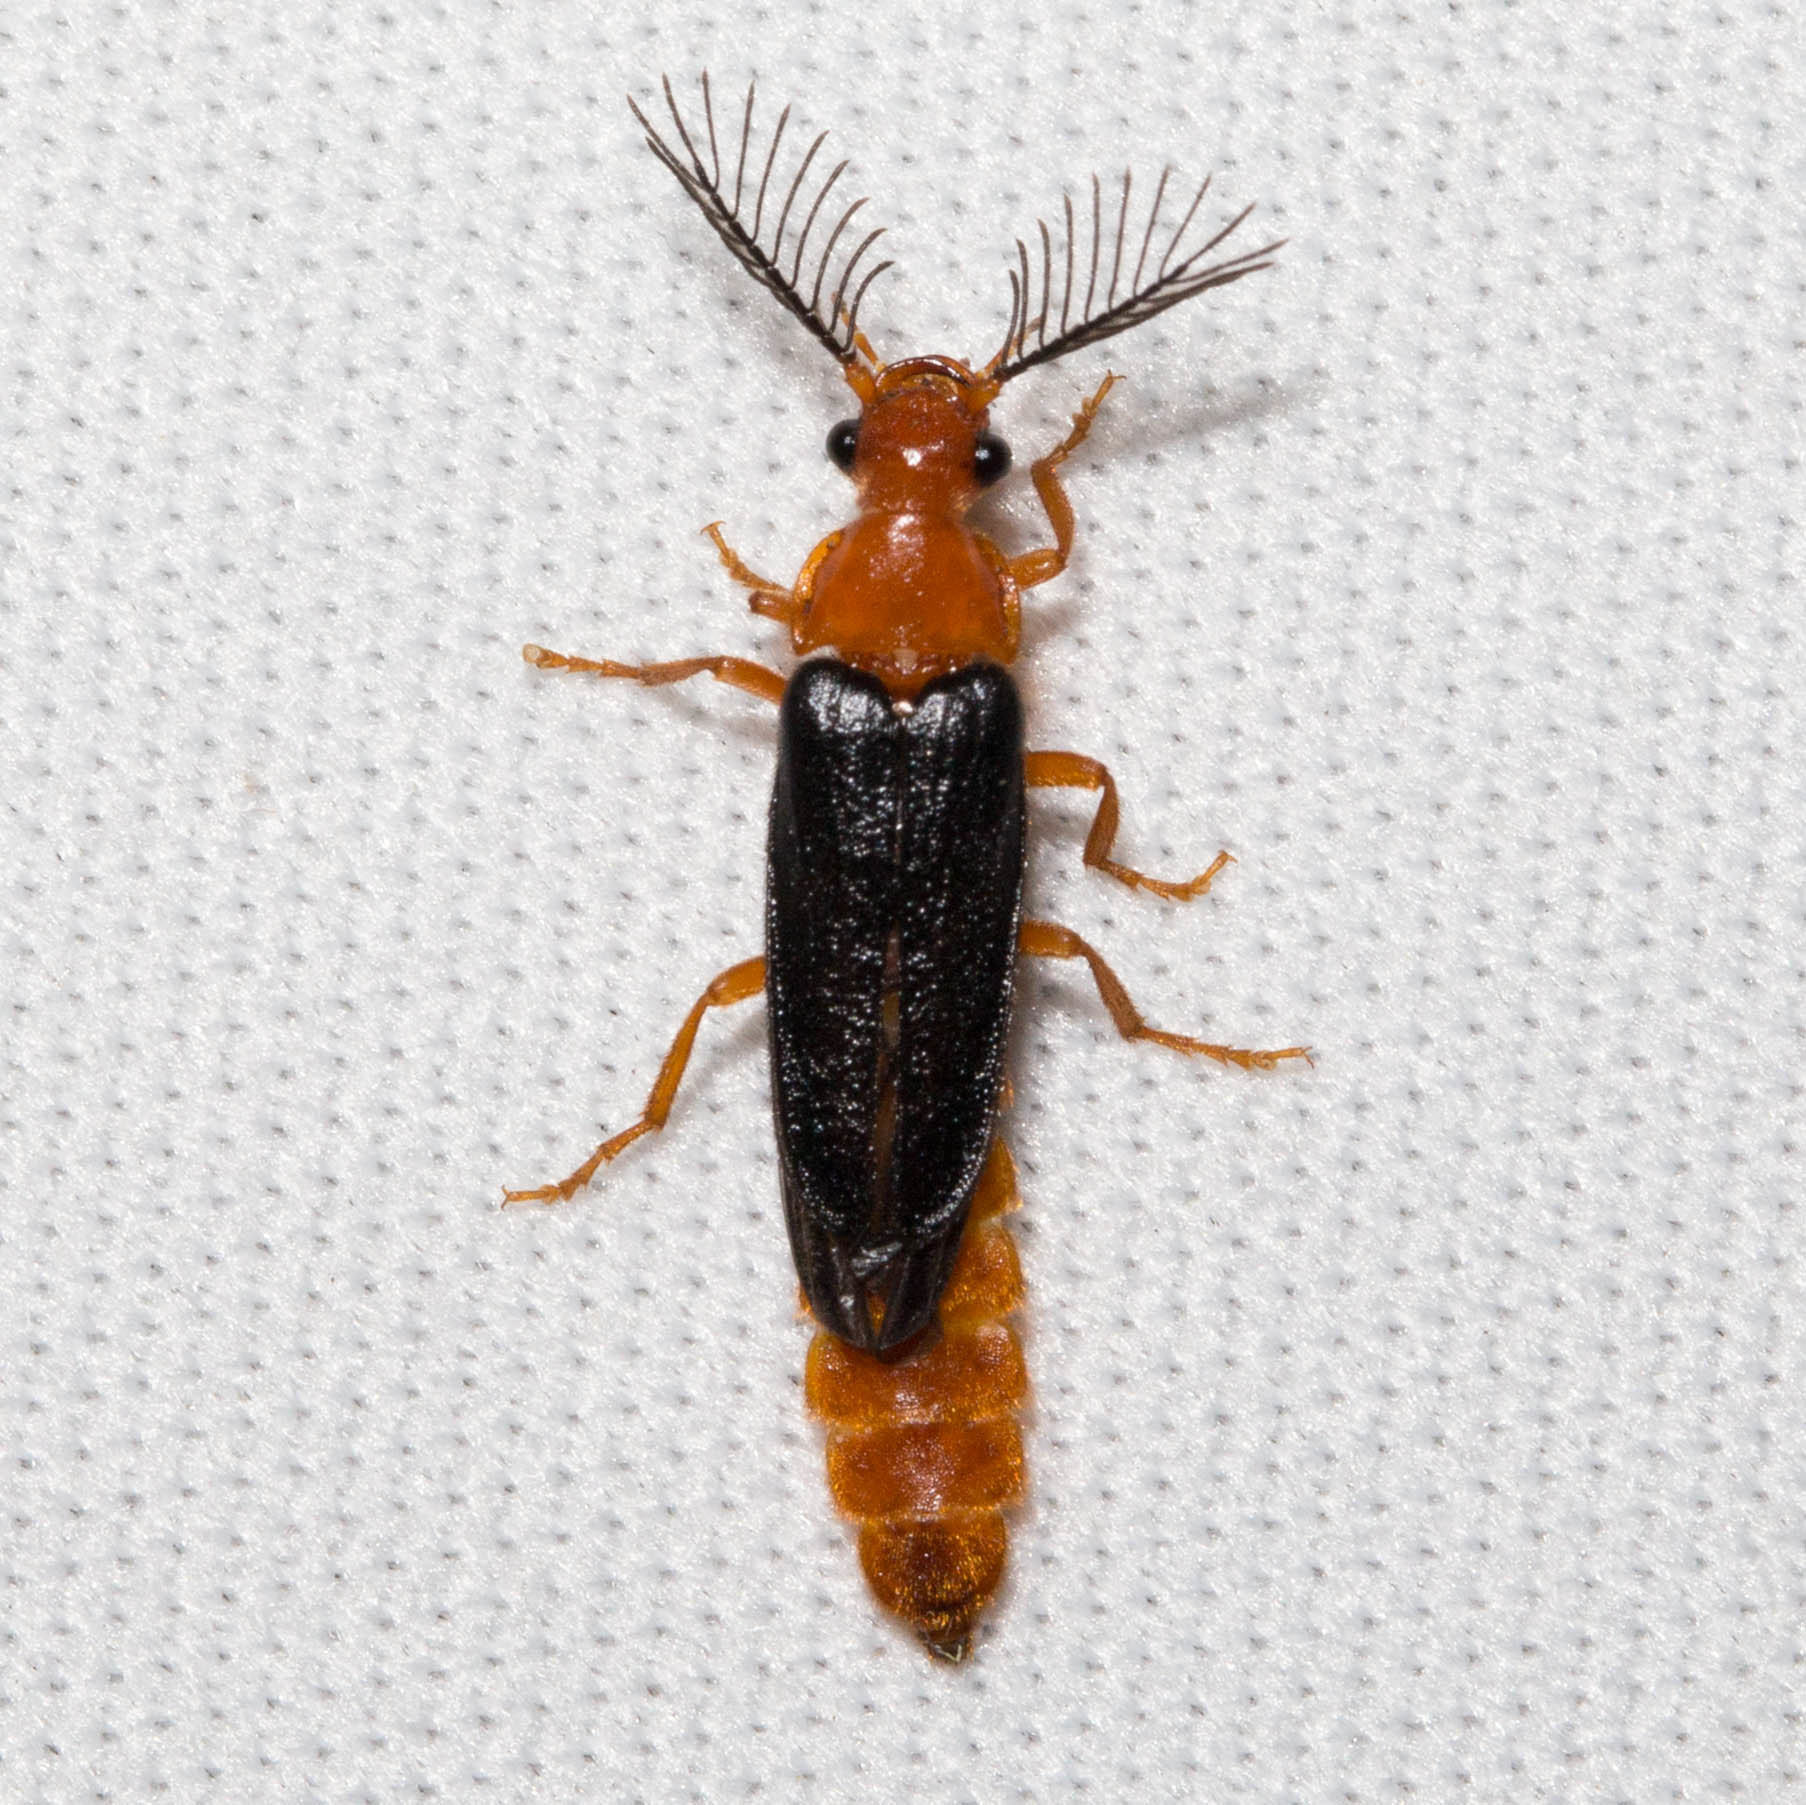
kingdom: Animalia
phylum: Arthropoda
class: Insecta
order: Coleoptera
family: Phengodidae
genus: Zarhipis
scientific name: Zarhipis integripennis
